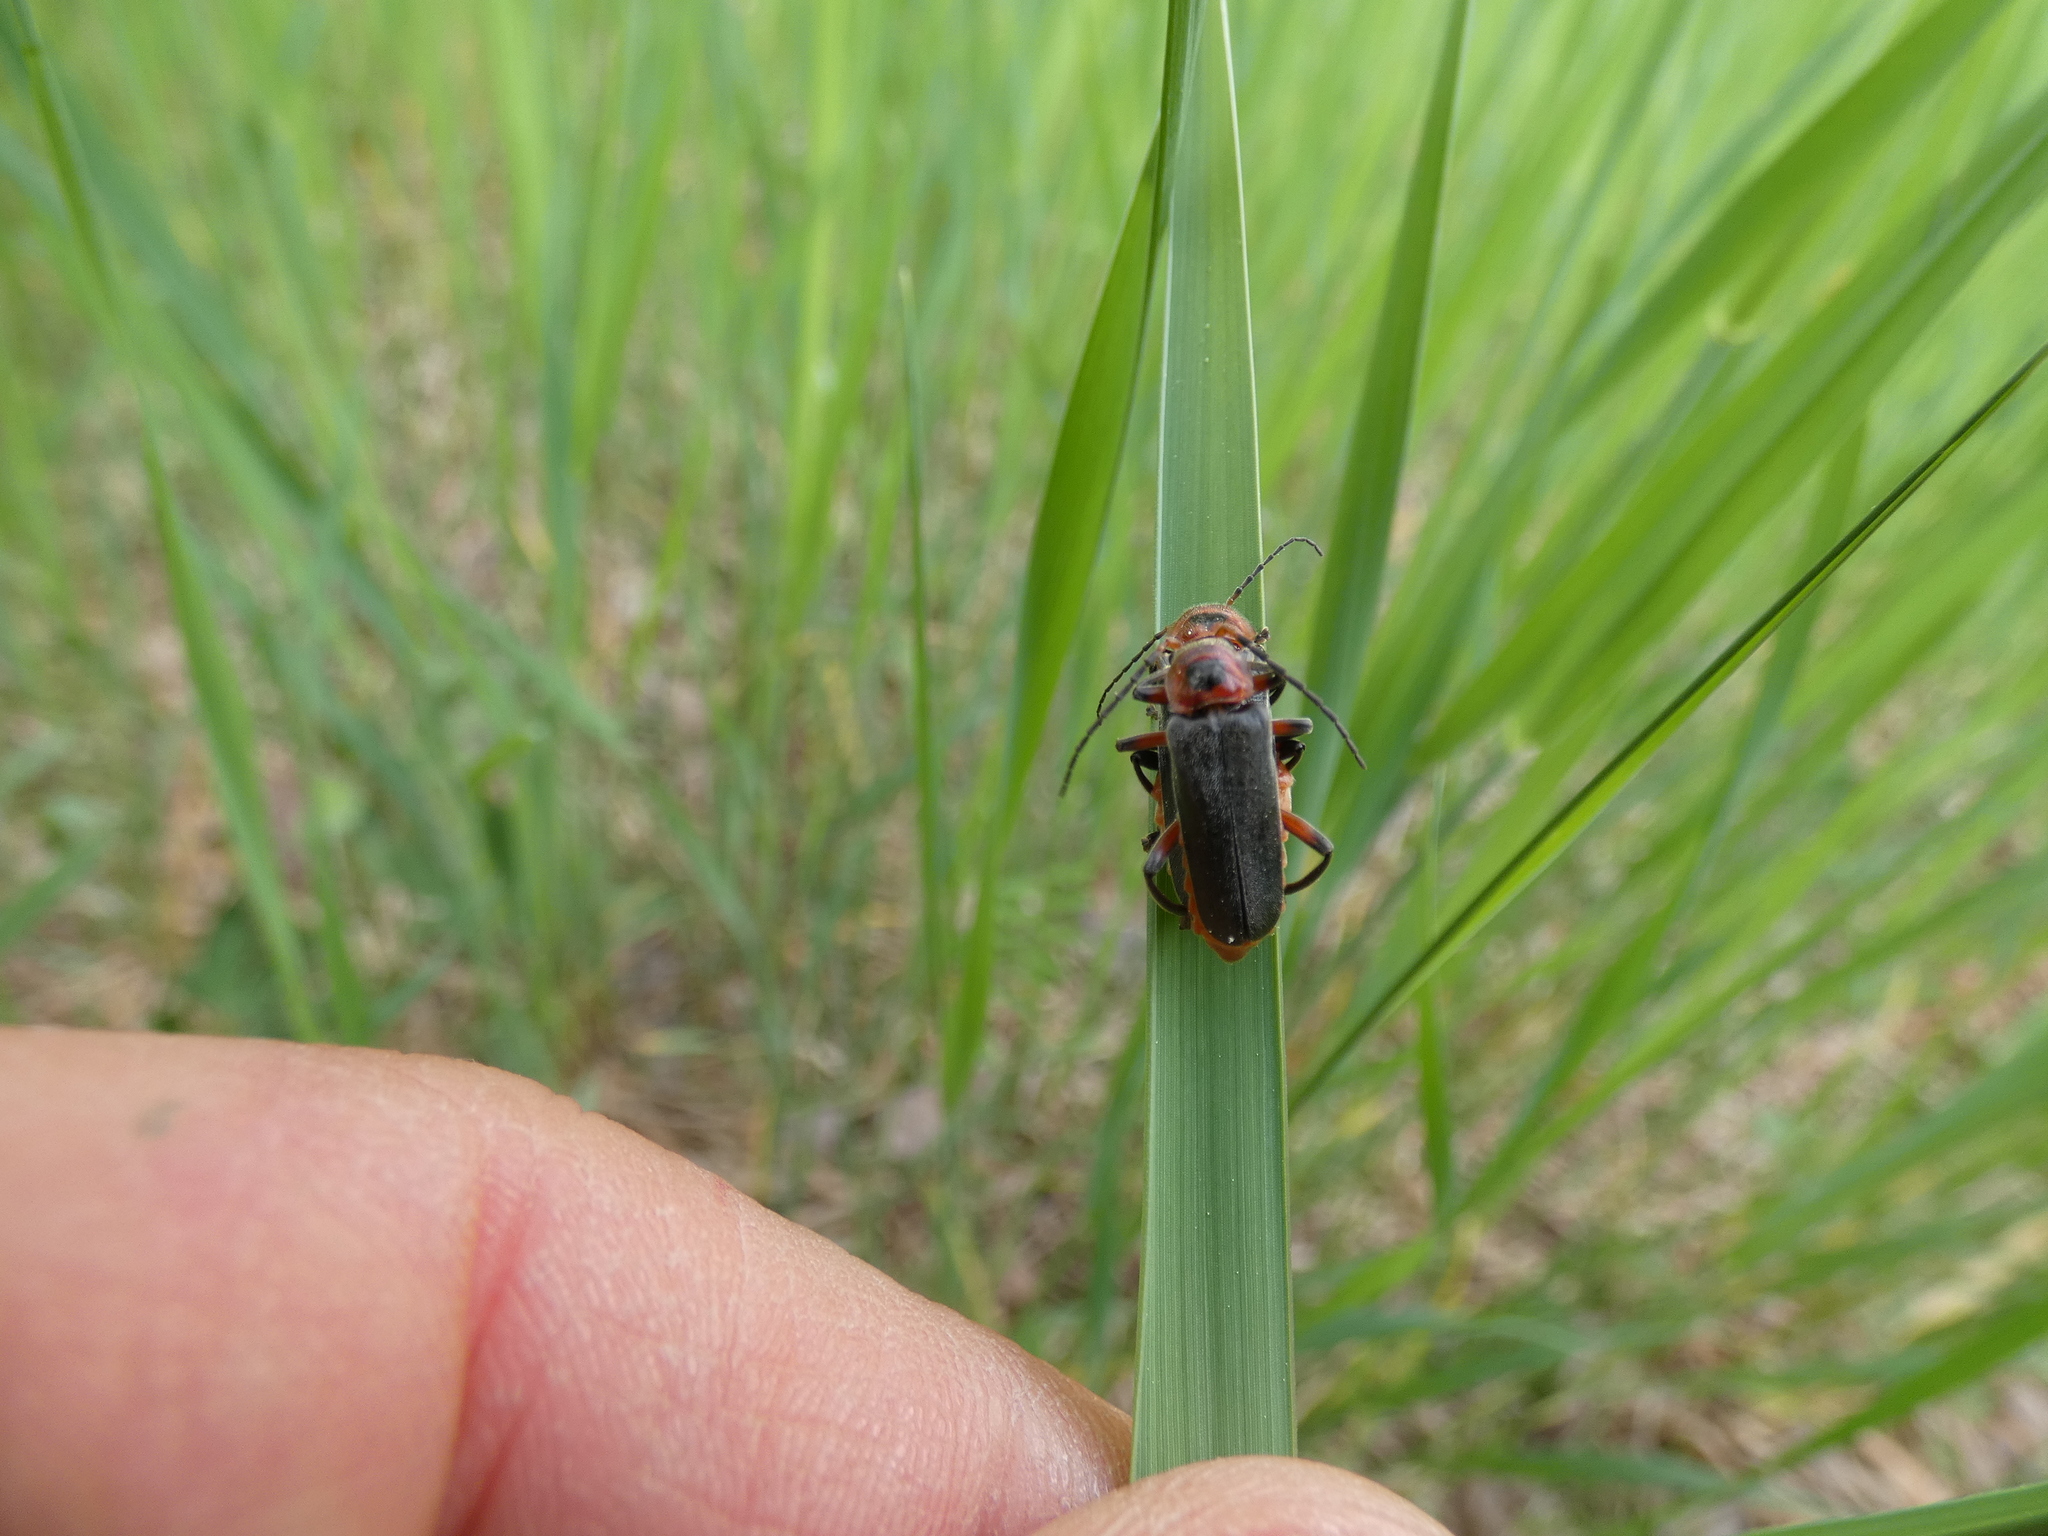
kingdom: Animalia
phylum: Arthropoda
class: Insecta
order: Coleoptera
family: Cantharidae
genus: Cantharis
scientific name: Cantharis rustica
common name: Soldier beetle
